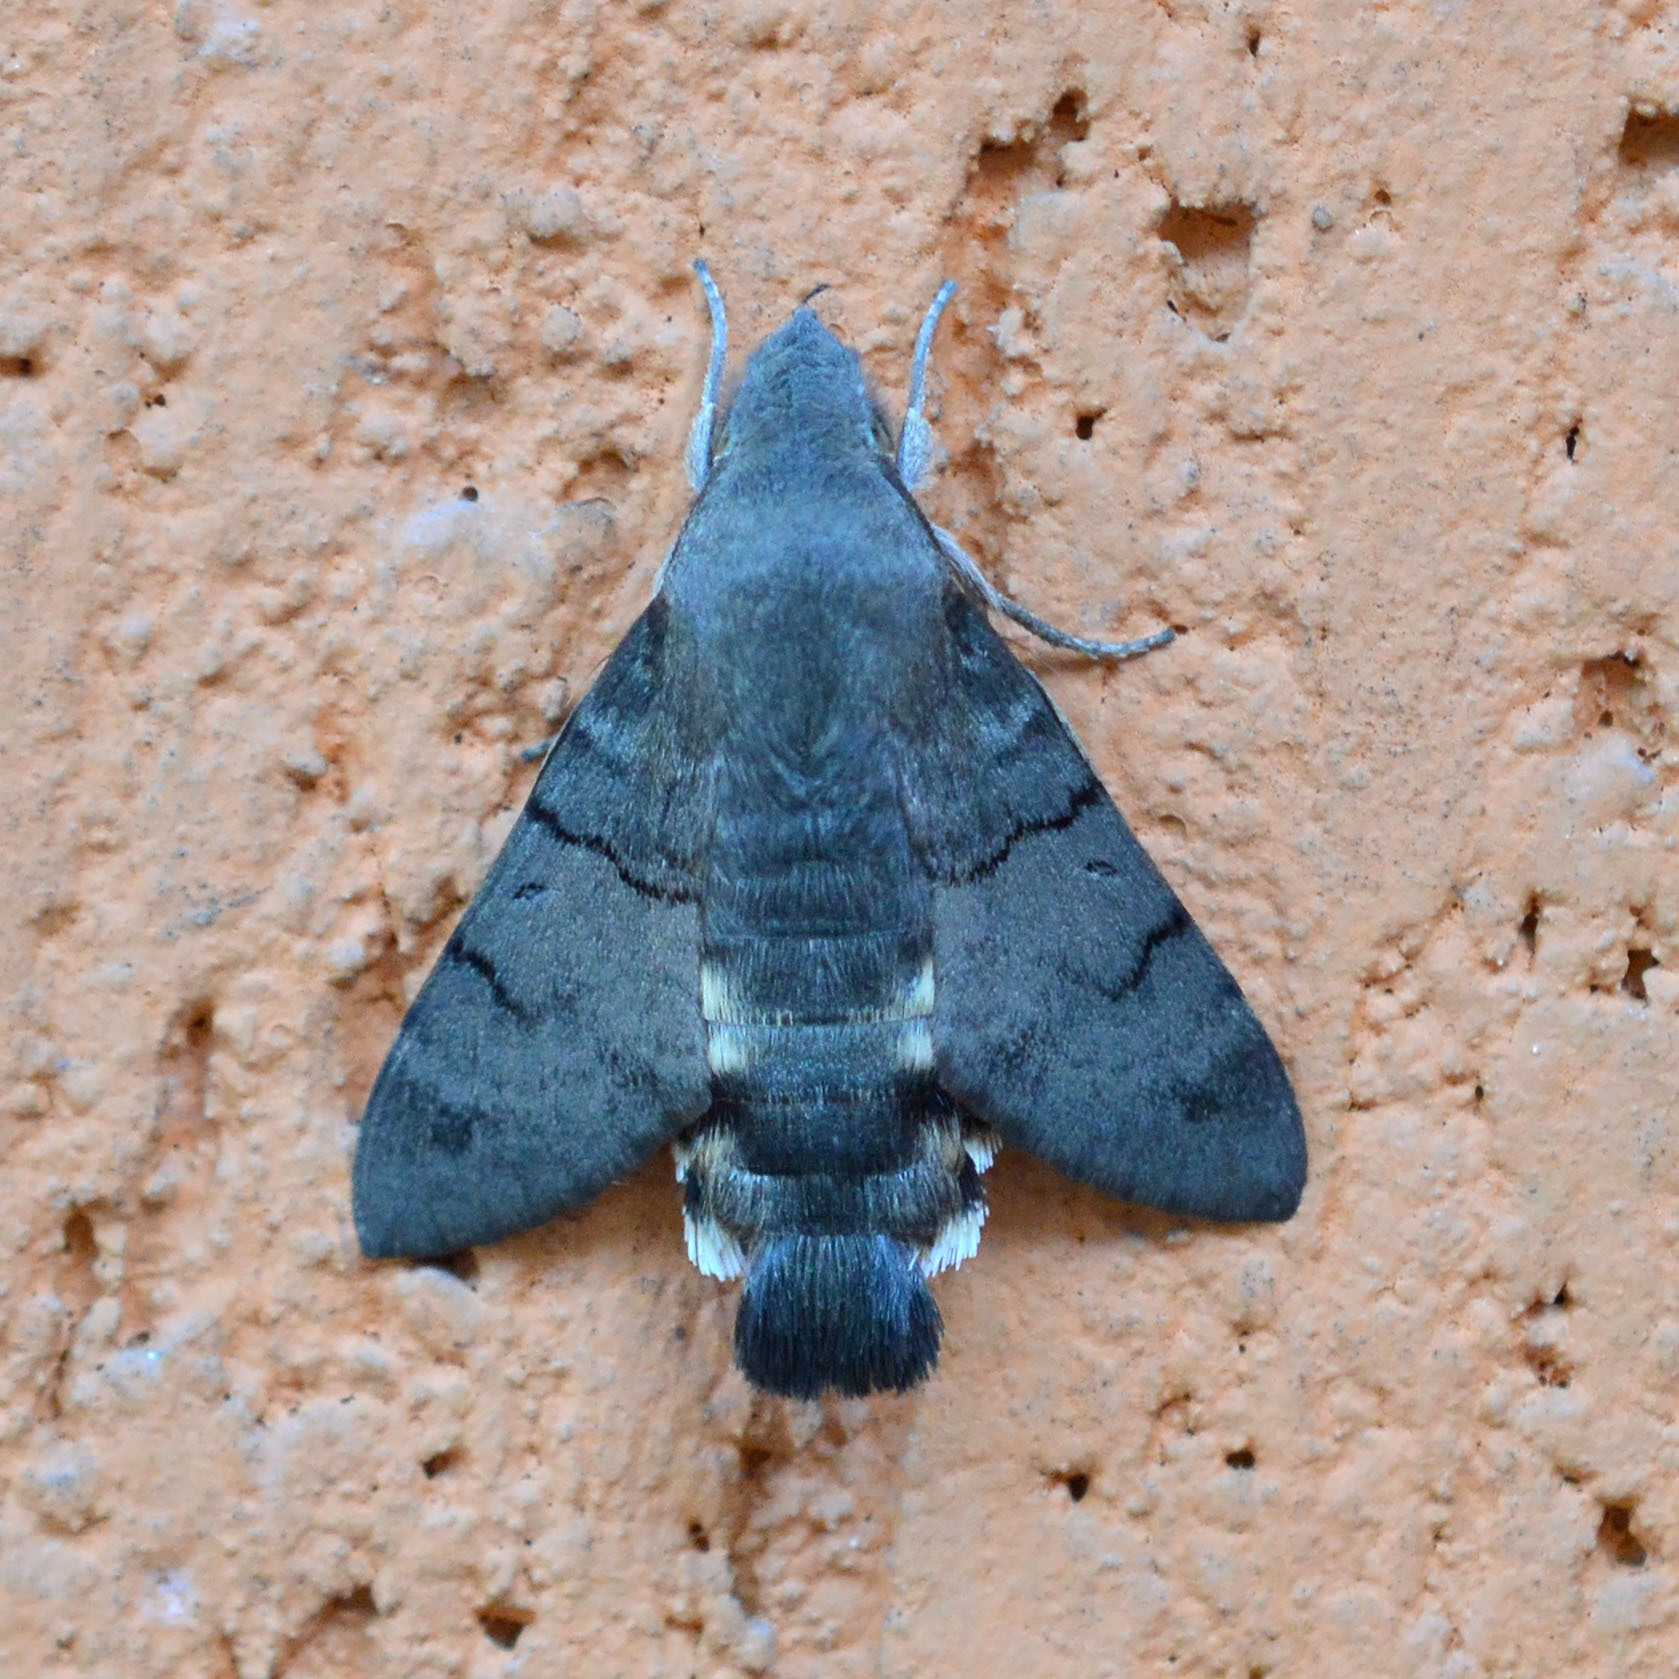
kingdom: Animalia
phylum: Arthropoda
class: Insecta
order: Lepidoptera
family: Sphingidae
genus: Macroglossum
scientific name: Macroglossum stellatarum
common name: Humming-bird hawk-moth
